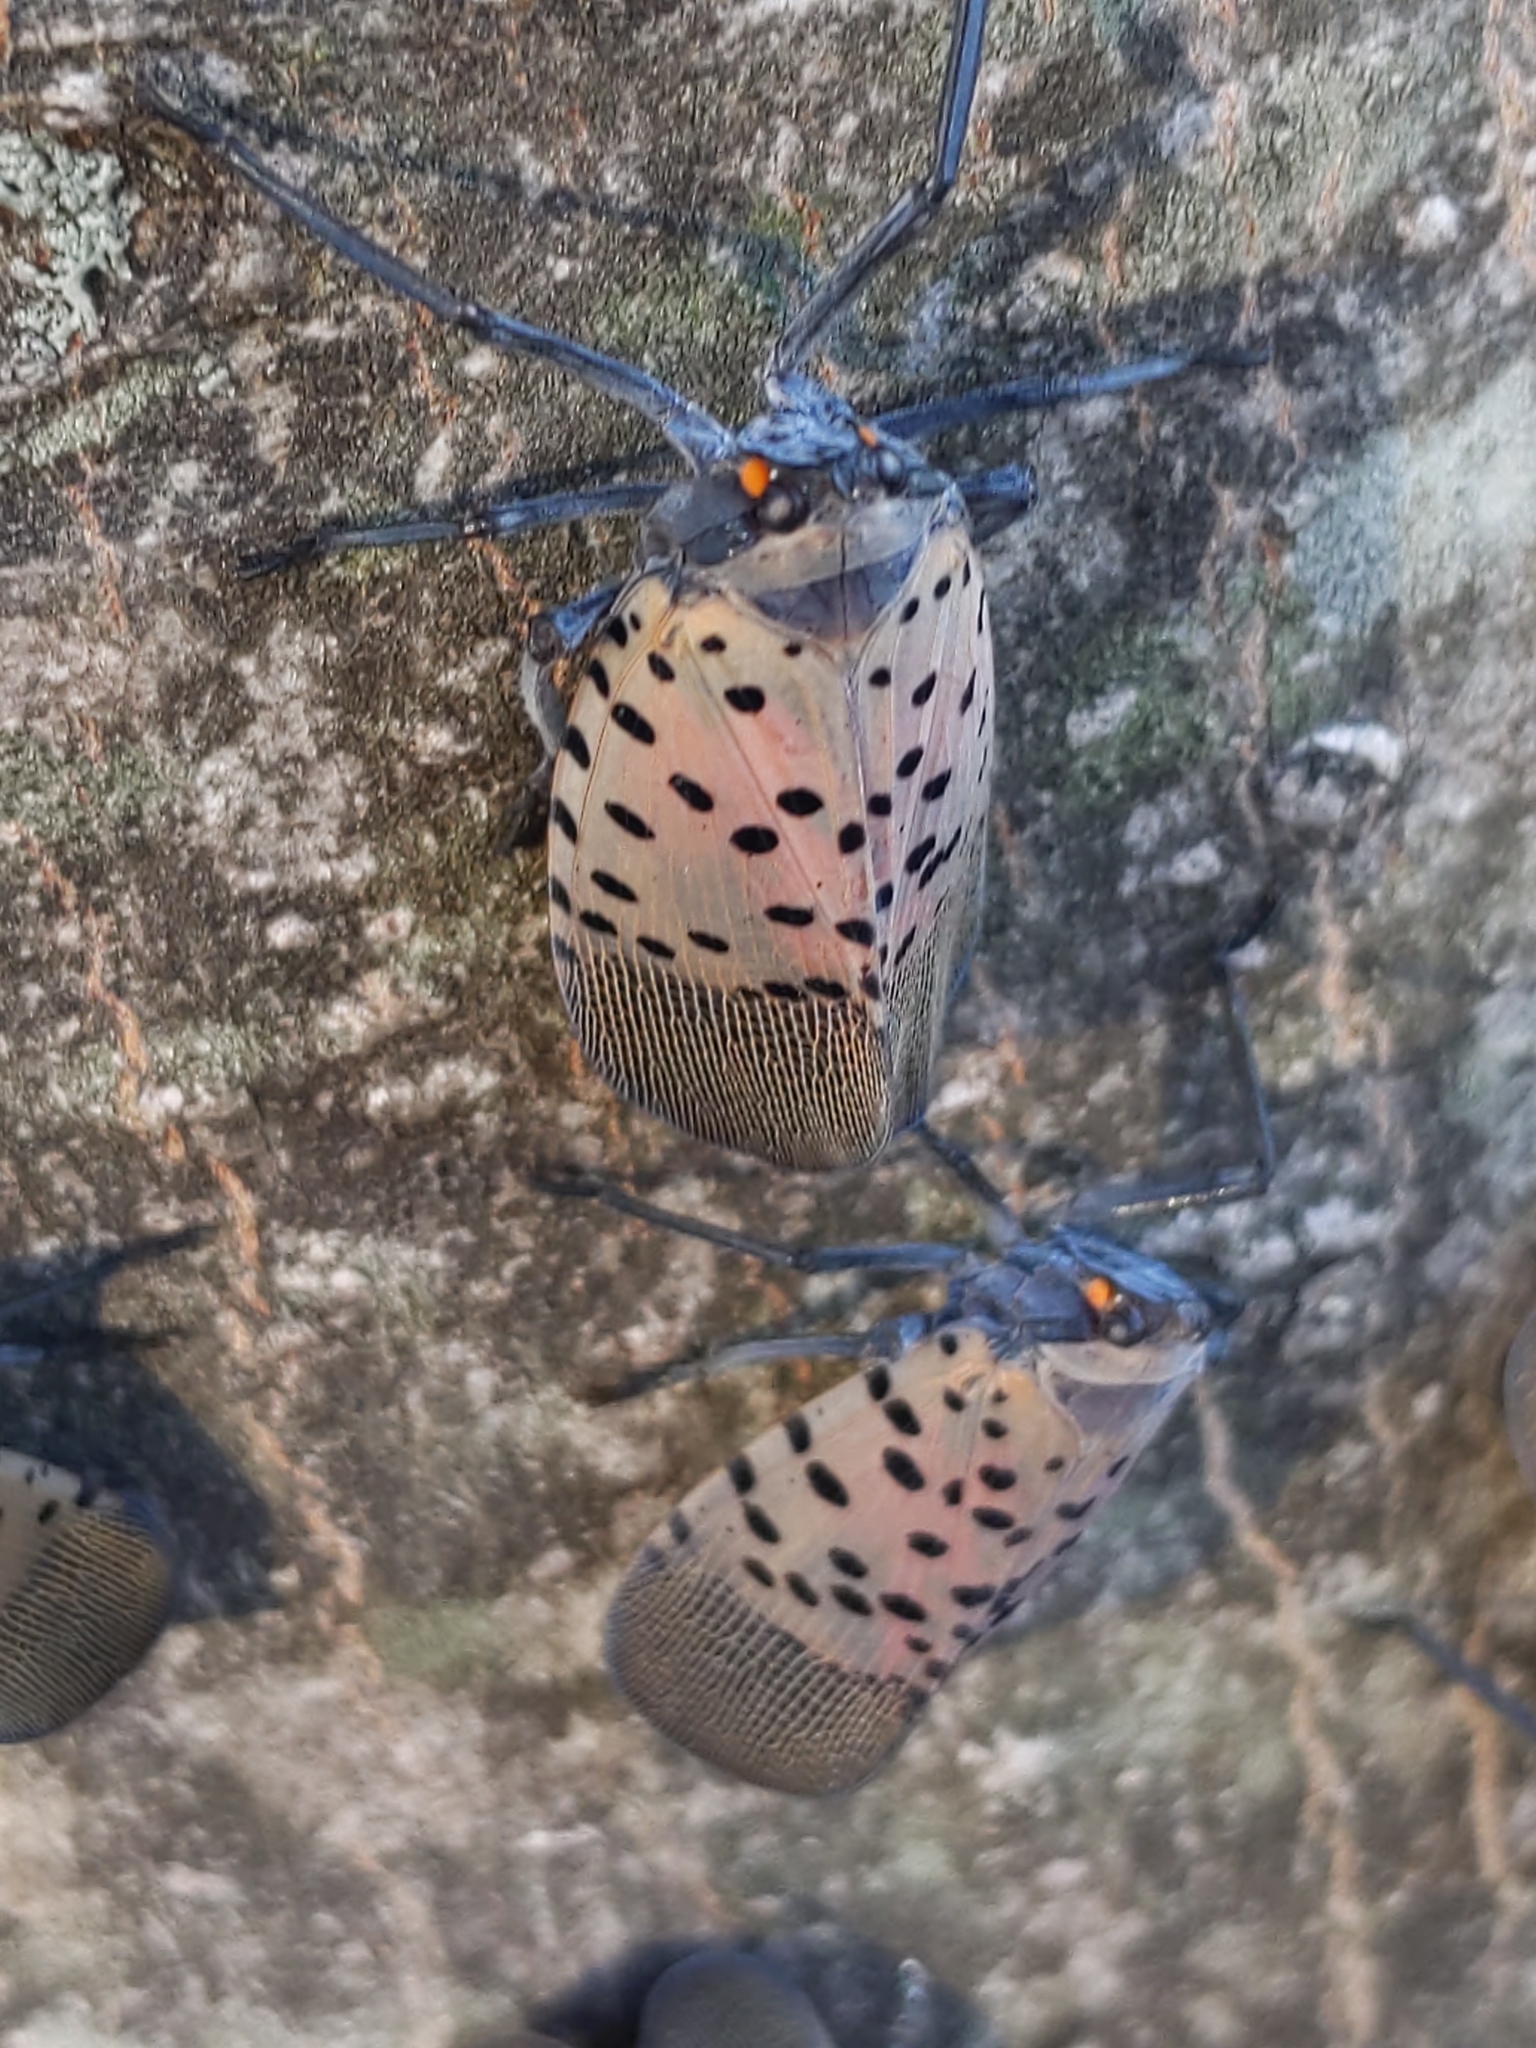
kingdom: Animalia
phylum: Arthropoda
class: Insecta
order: Hemiptera
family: Fulgoridae
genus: Lycorma
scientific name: Lycorma delicatula
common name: Spotted lanternfly
